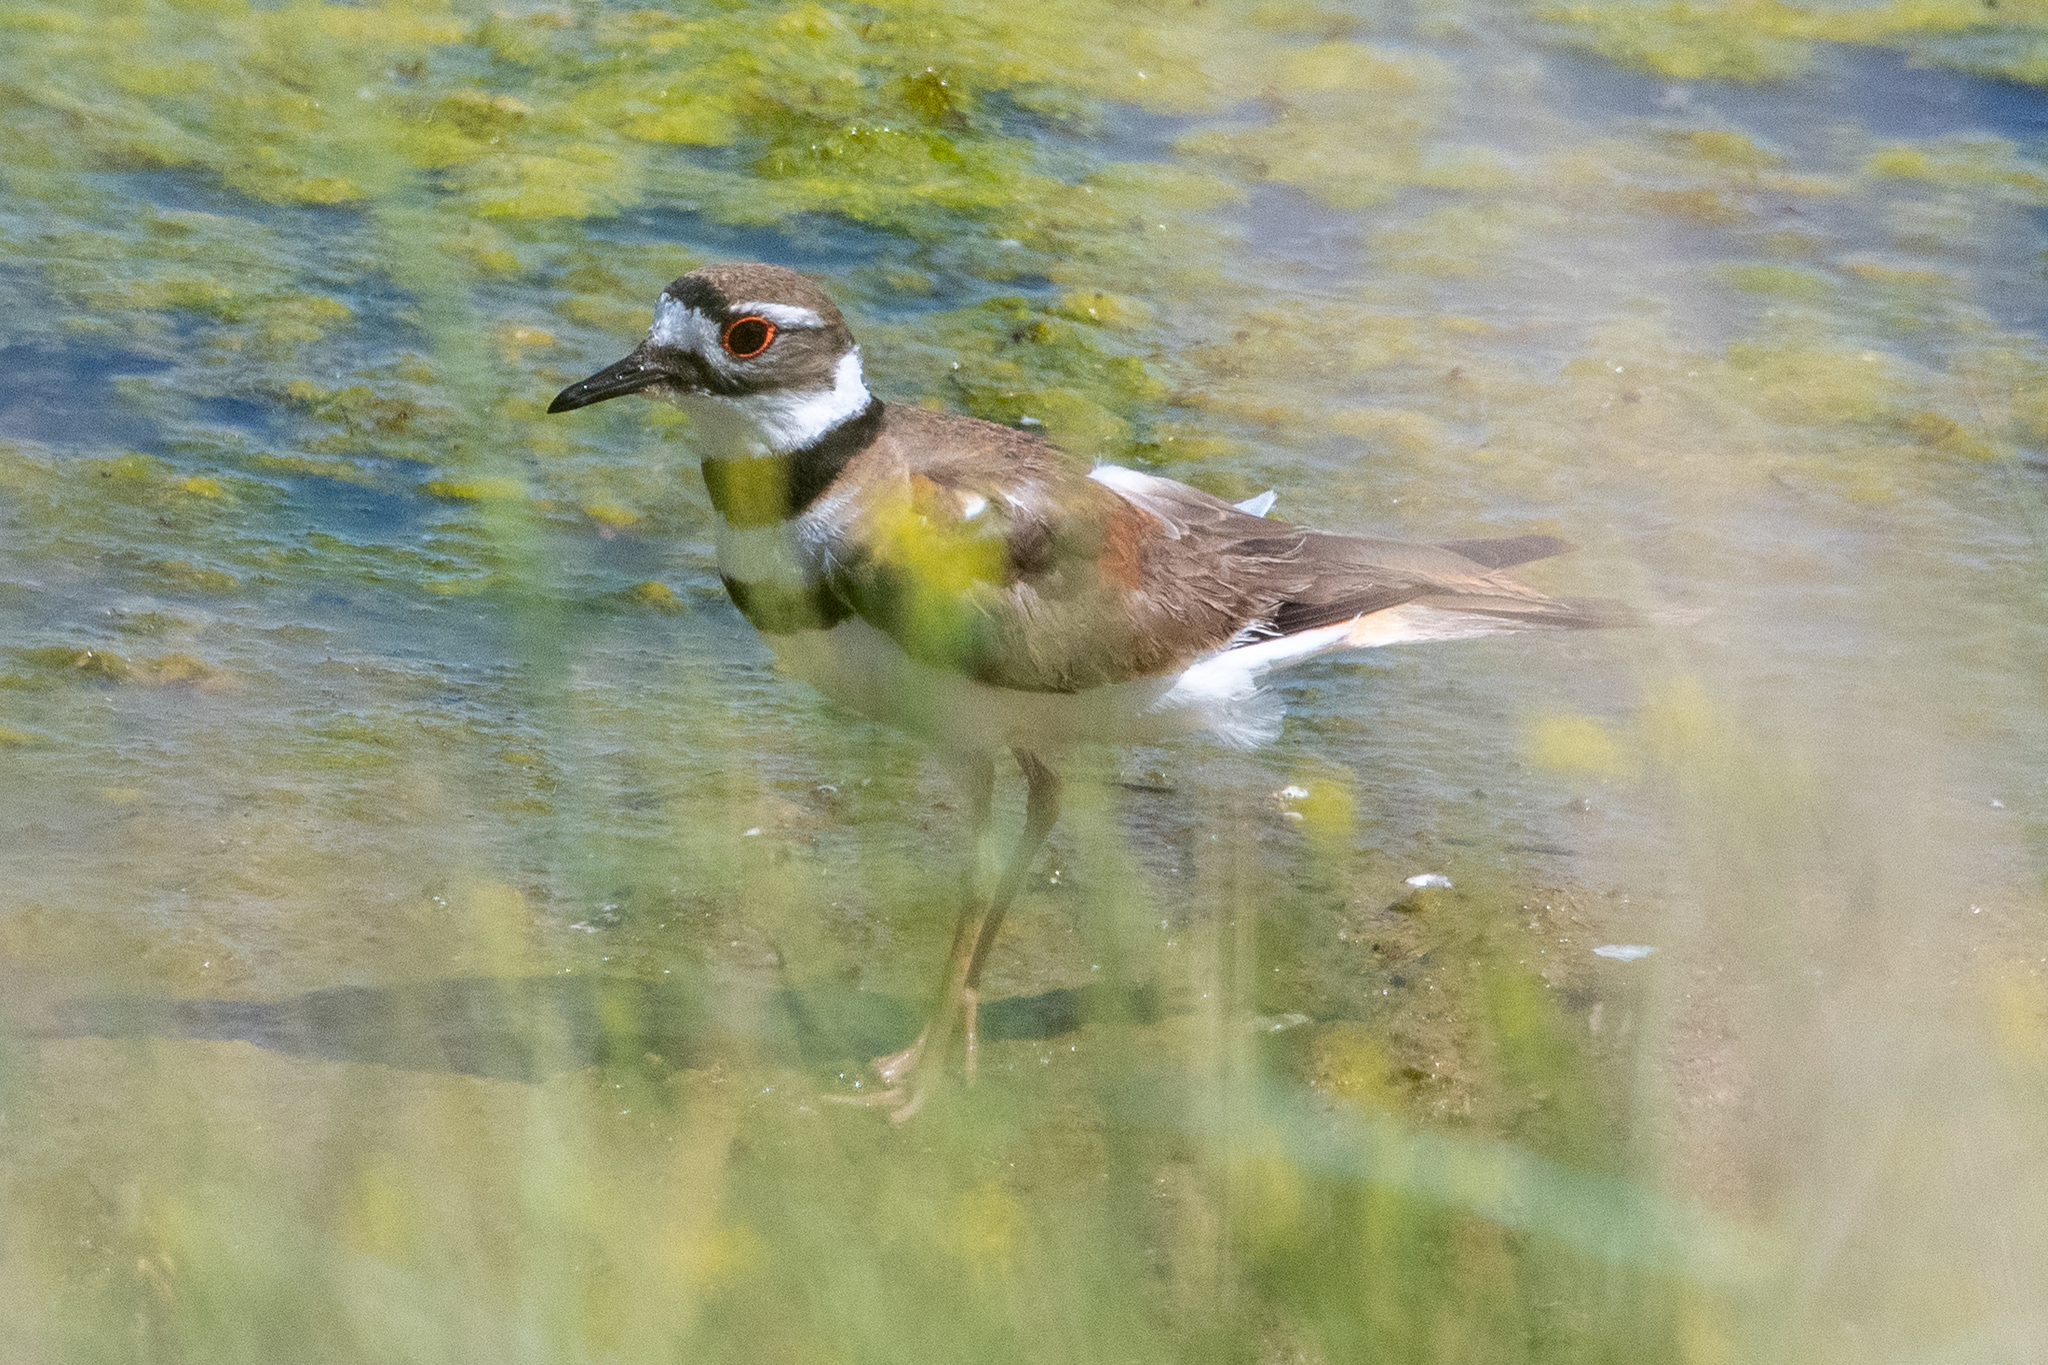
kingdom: Animalia
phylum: Chordata
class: Aves
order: Charadriiformes
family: Charadriidae
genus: Charadrius
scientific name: Charadrius vociferus
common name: Killdeer
